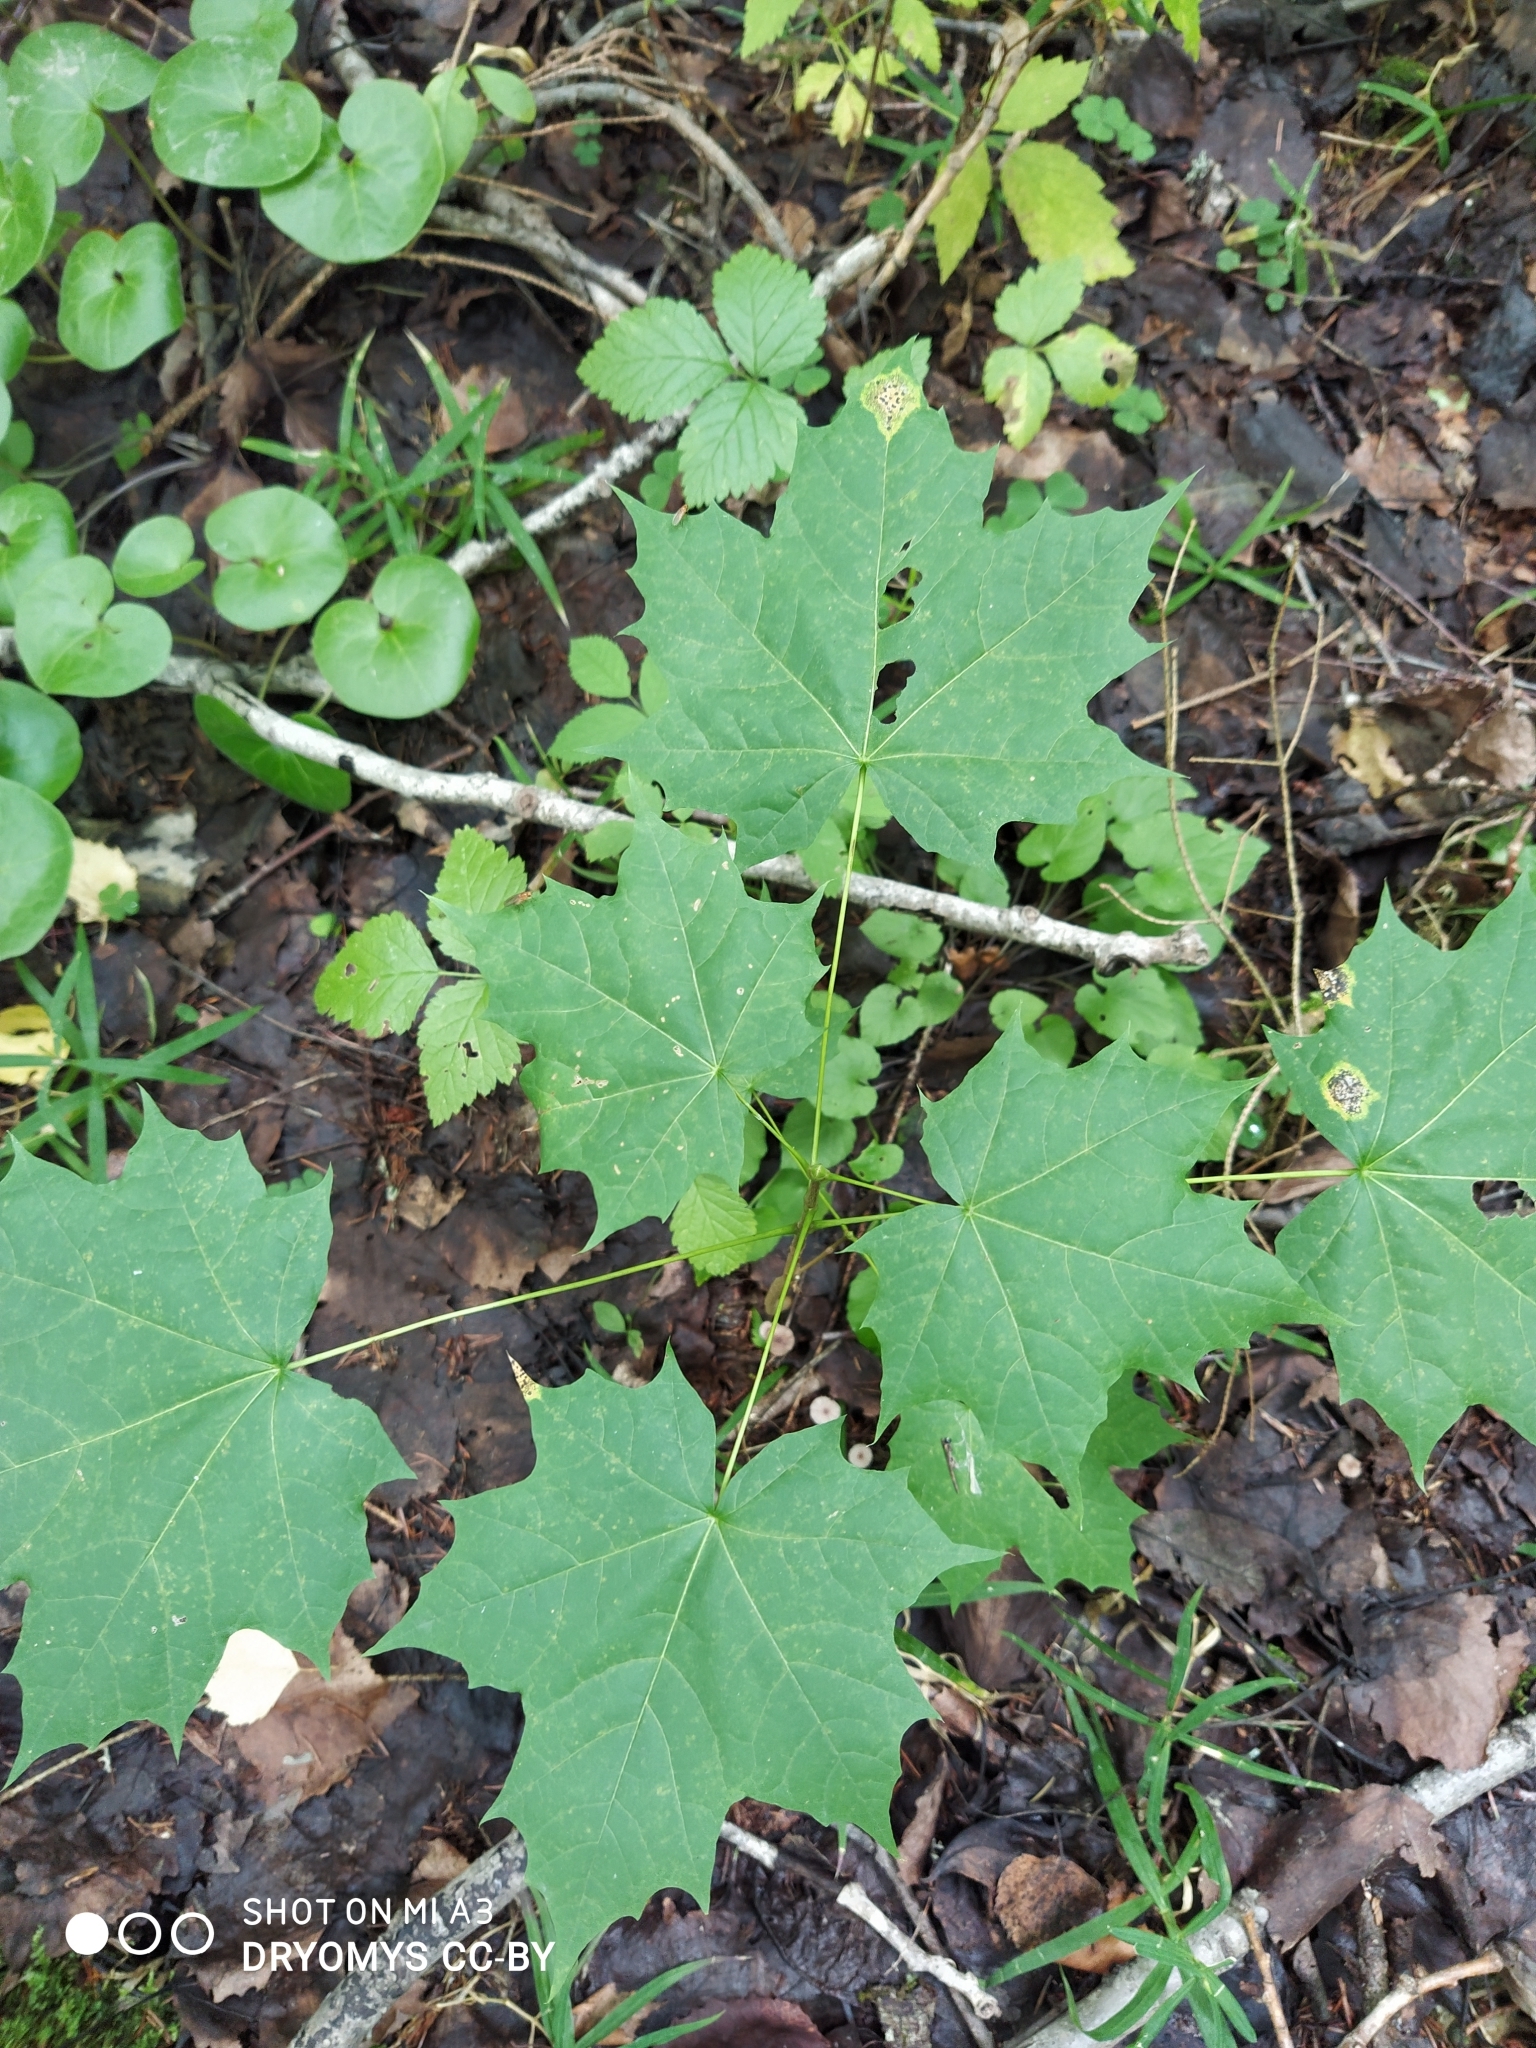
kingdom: Plantae
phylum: Tracheophyta
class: Magnoliopsida
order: Sapindales
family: Sapindaceae
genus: Acer
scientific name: Acer platanoides
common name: Norway maple
